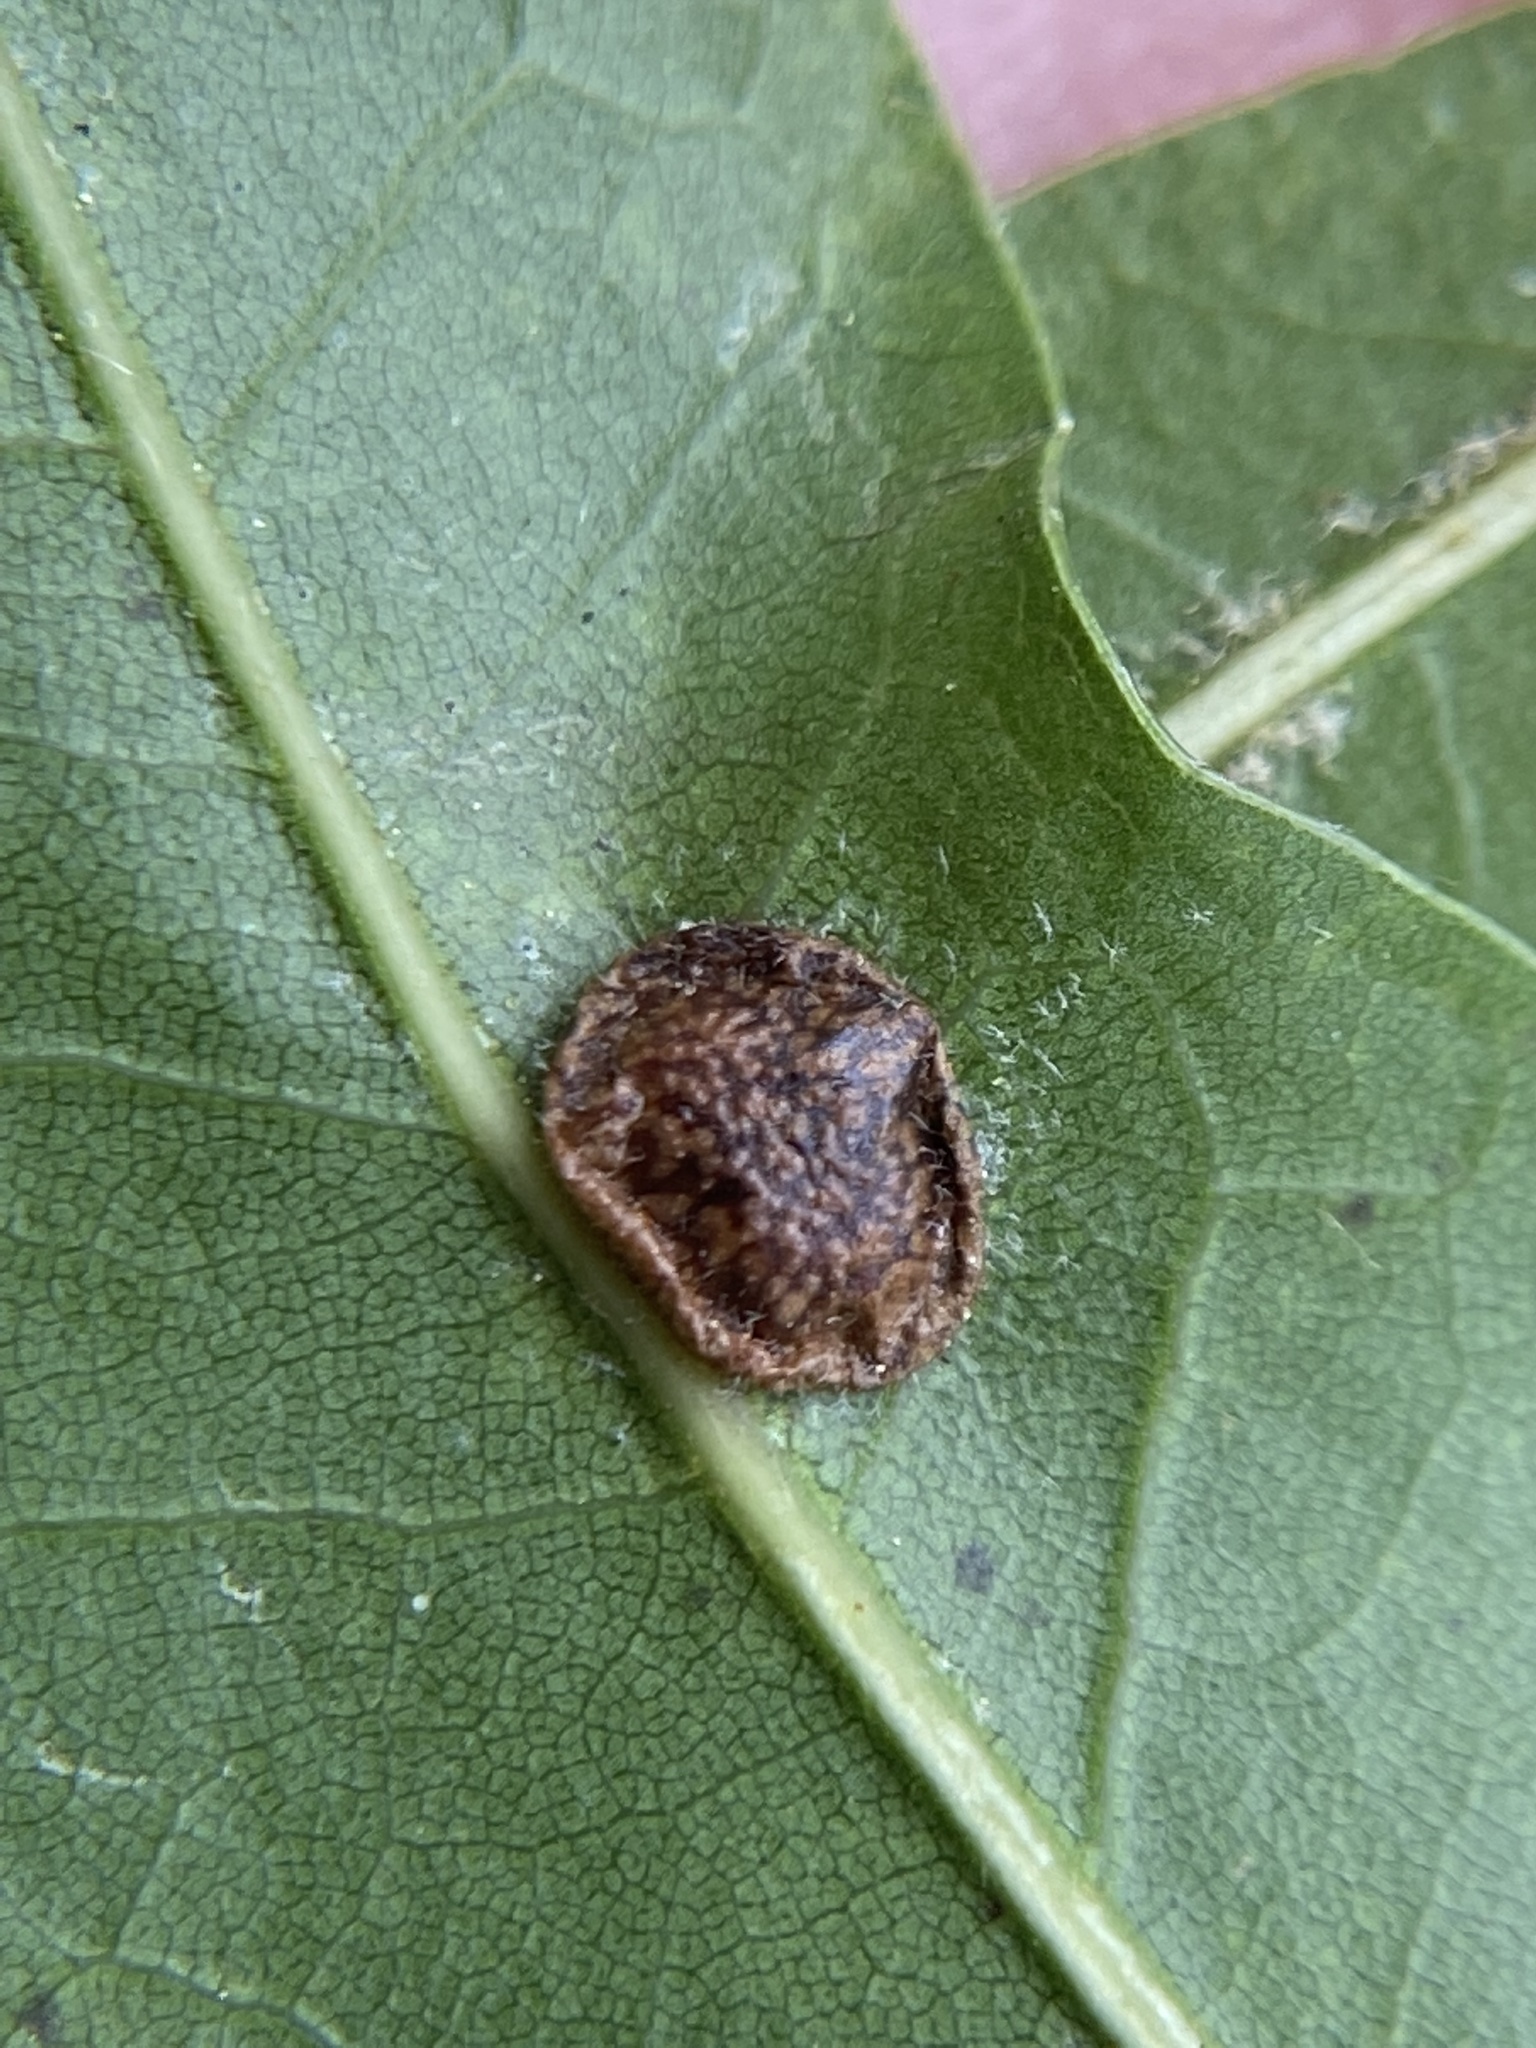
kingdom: Animalia
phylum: Arthropoda
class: Insecta
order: Hymenoptera
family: Cynipidae
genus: Amphibolips
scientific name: Amphibolips
